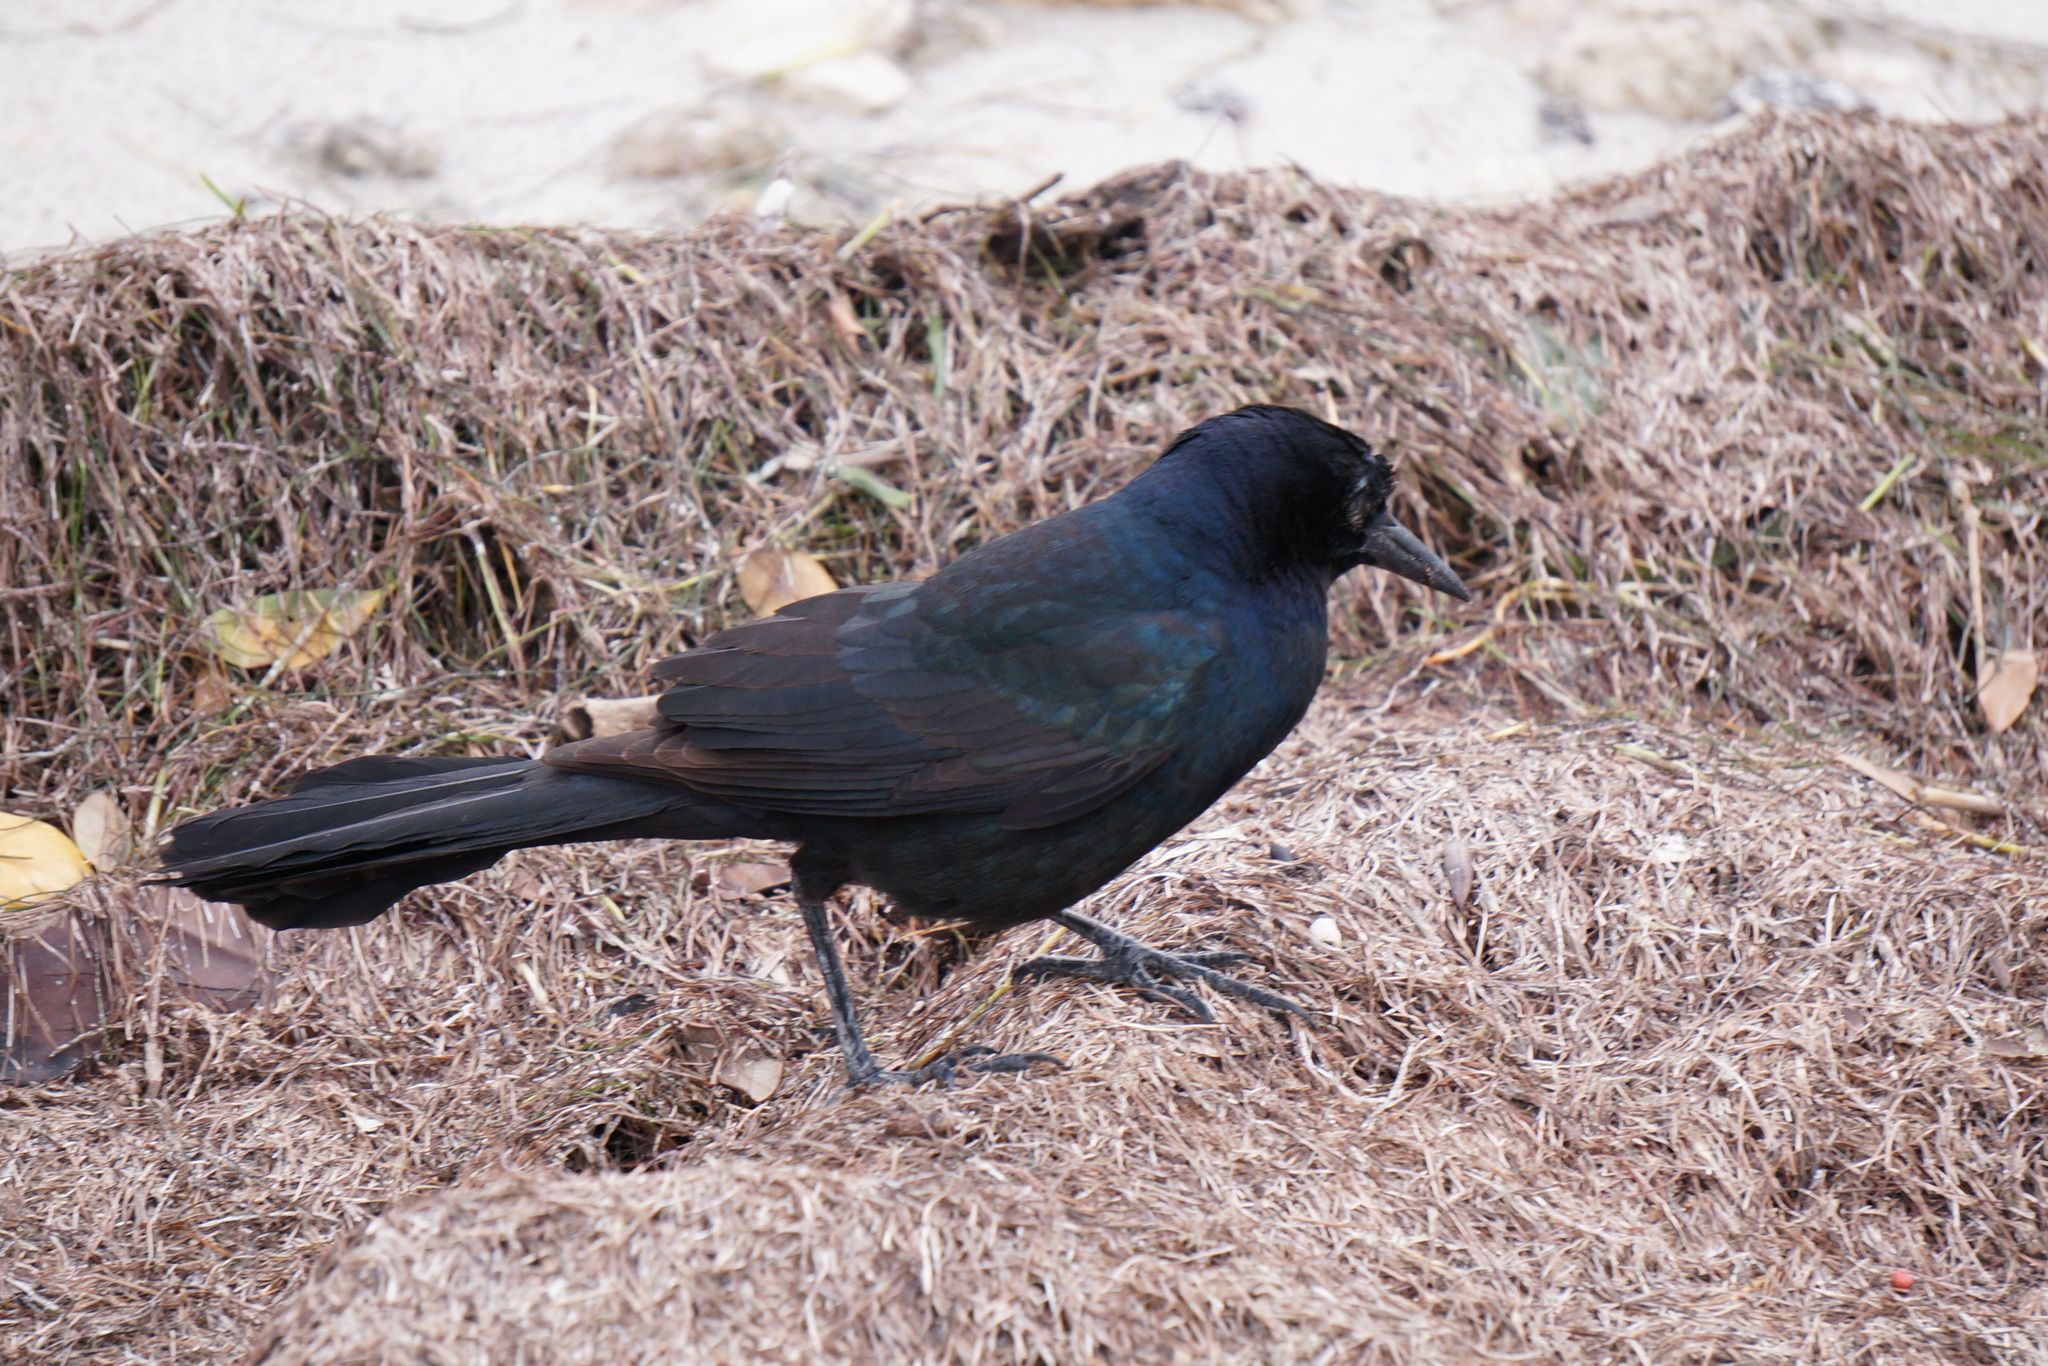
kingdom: Animalia
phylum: Chordata
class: Aves
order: Passeriformes
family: Icteridae
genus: Quiscalus
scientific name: Quiscalus major
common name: Boat-tailed grackle
